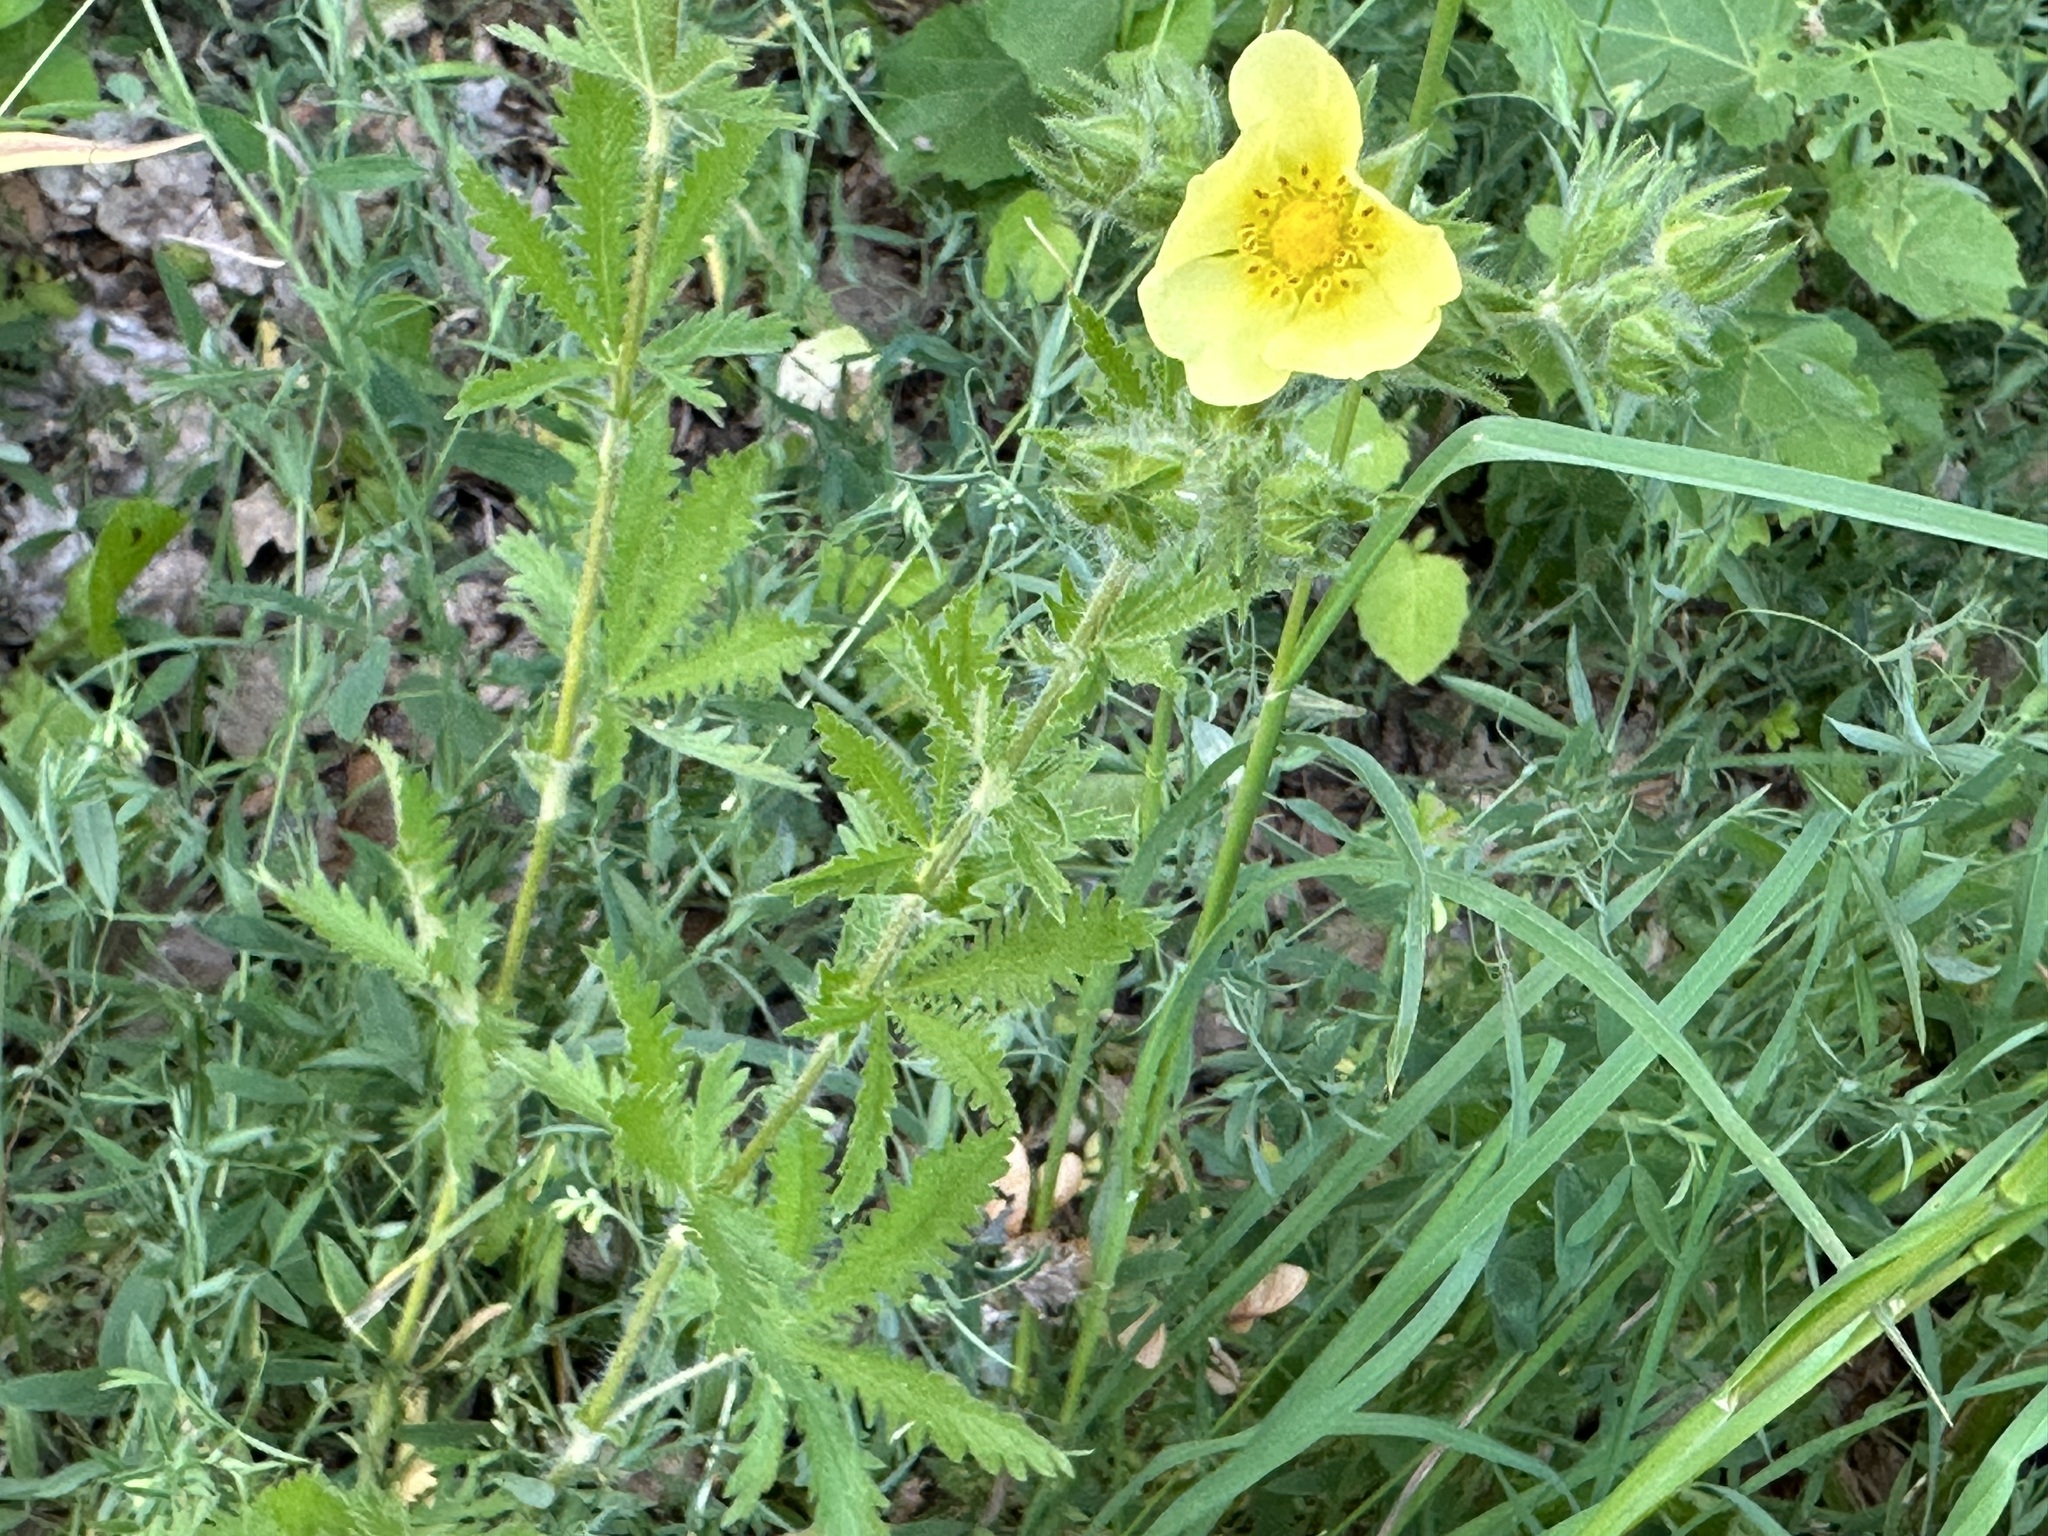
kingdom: Plantae
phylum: Tracheophyta
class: Magnoliopsida
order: Rosales
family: Rosaceae
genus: Potentilla
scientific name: Potentilla recta
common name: Sulphur cinquefoil
